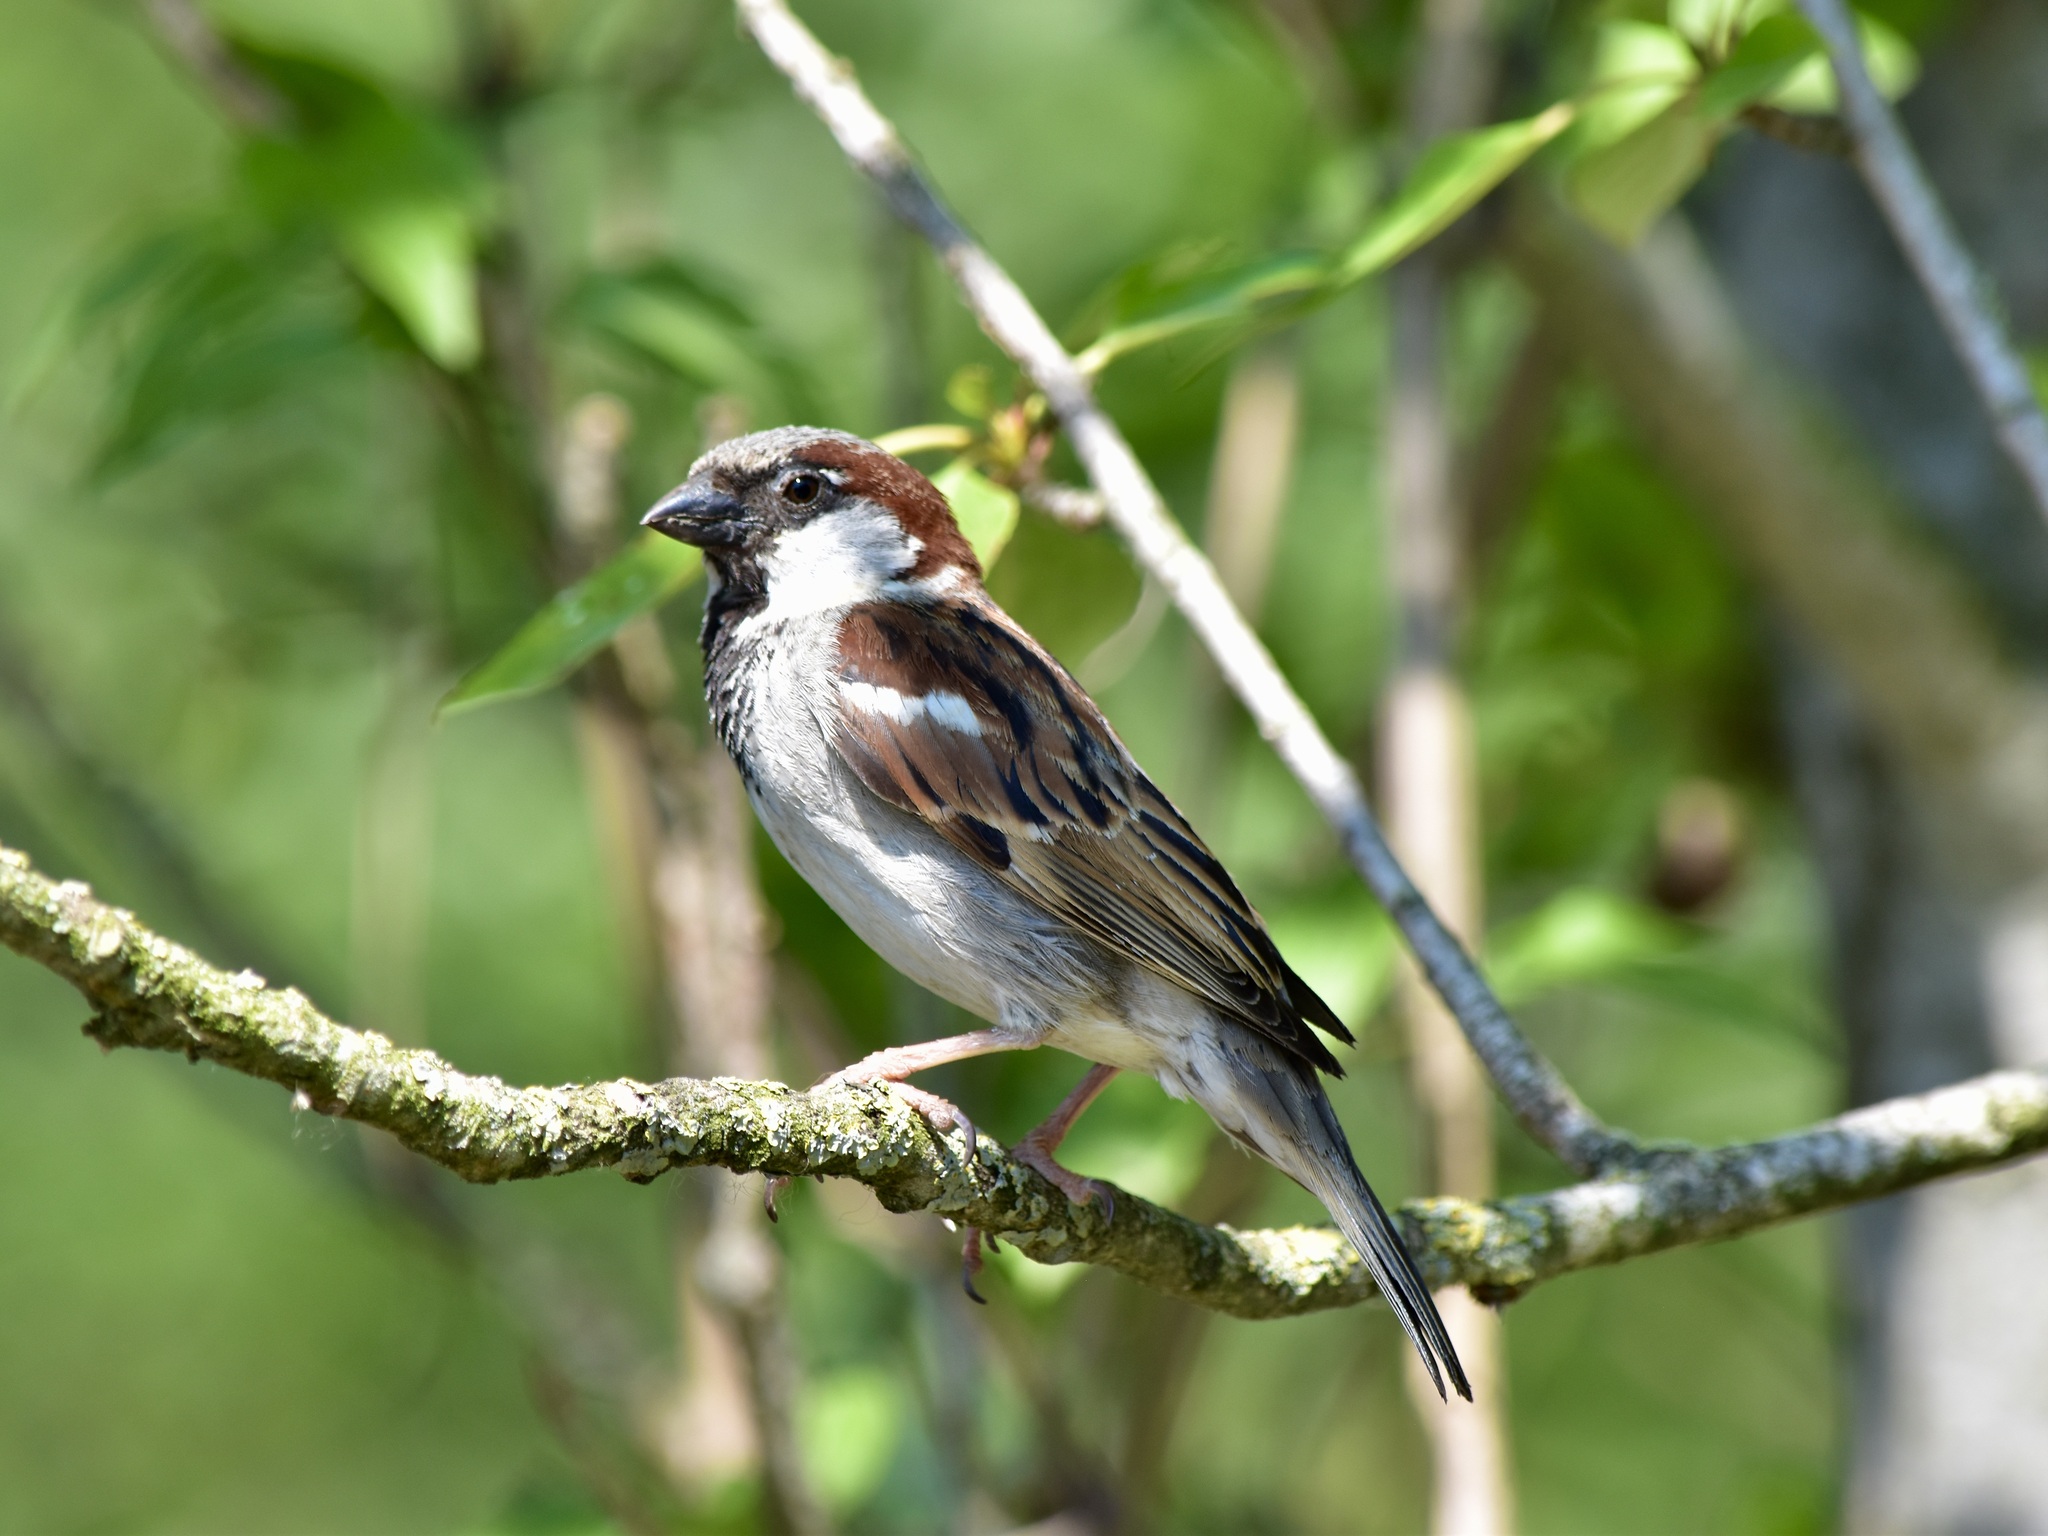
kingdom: Animalia
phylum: Chordata
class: Aves
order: Passeriformes
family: Passeridae
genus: Passer
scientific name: Passer domesticus
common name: House sparrow
